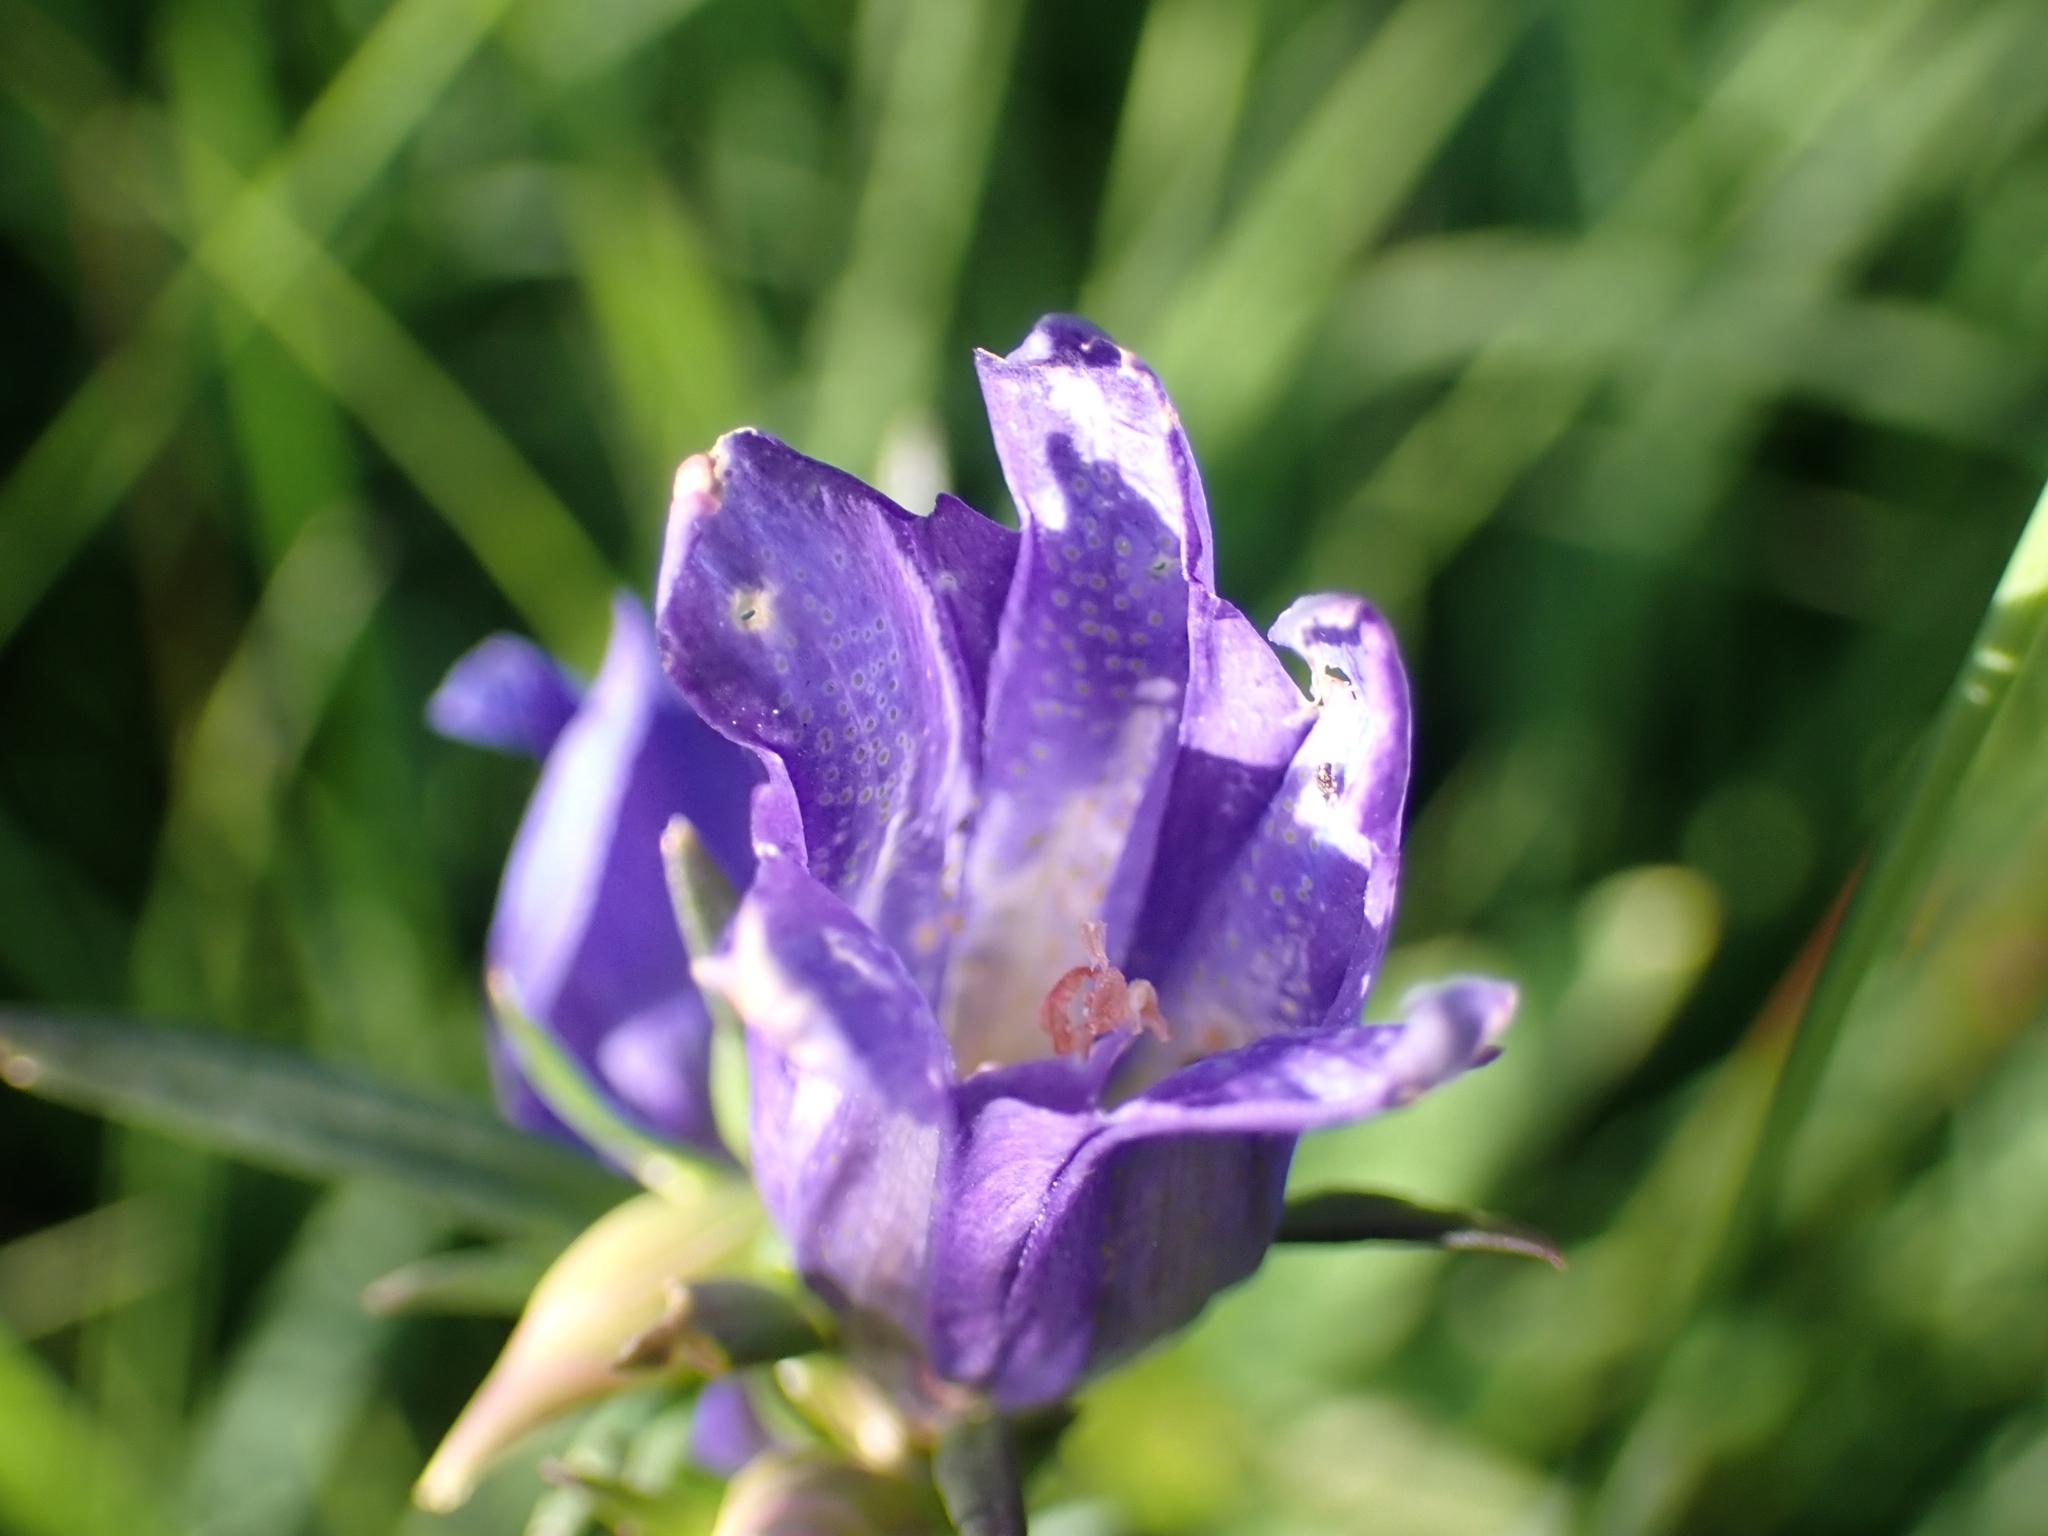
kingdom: Plantae
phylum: Tracheophyta
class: Magnoliopsida
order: Gentianales
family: Gentianaceae
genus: Gentiana
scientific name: Gentiana pneumonanthe
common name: Marsh gentian
